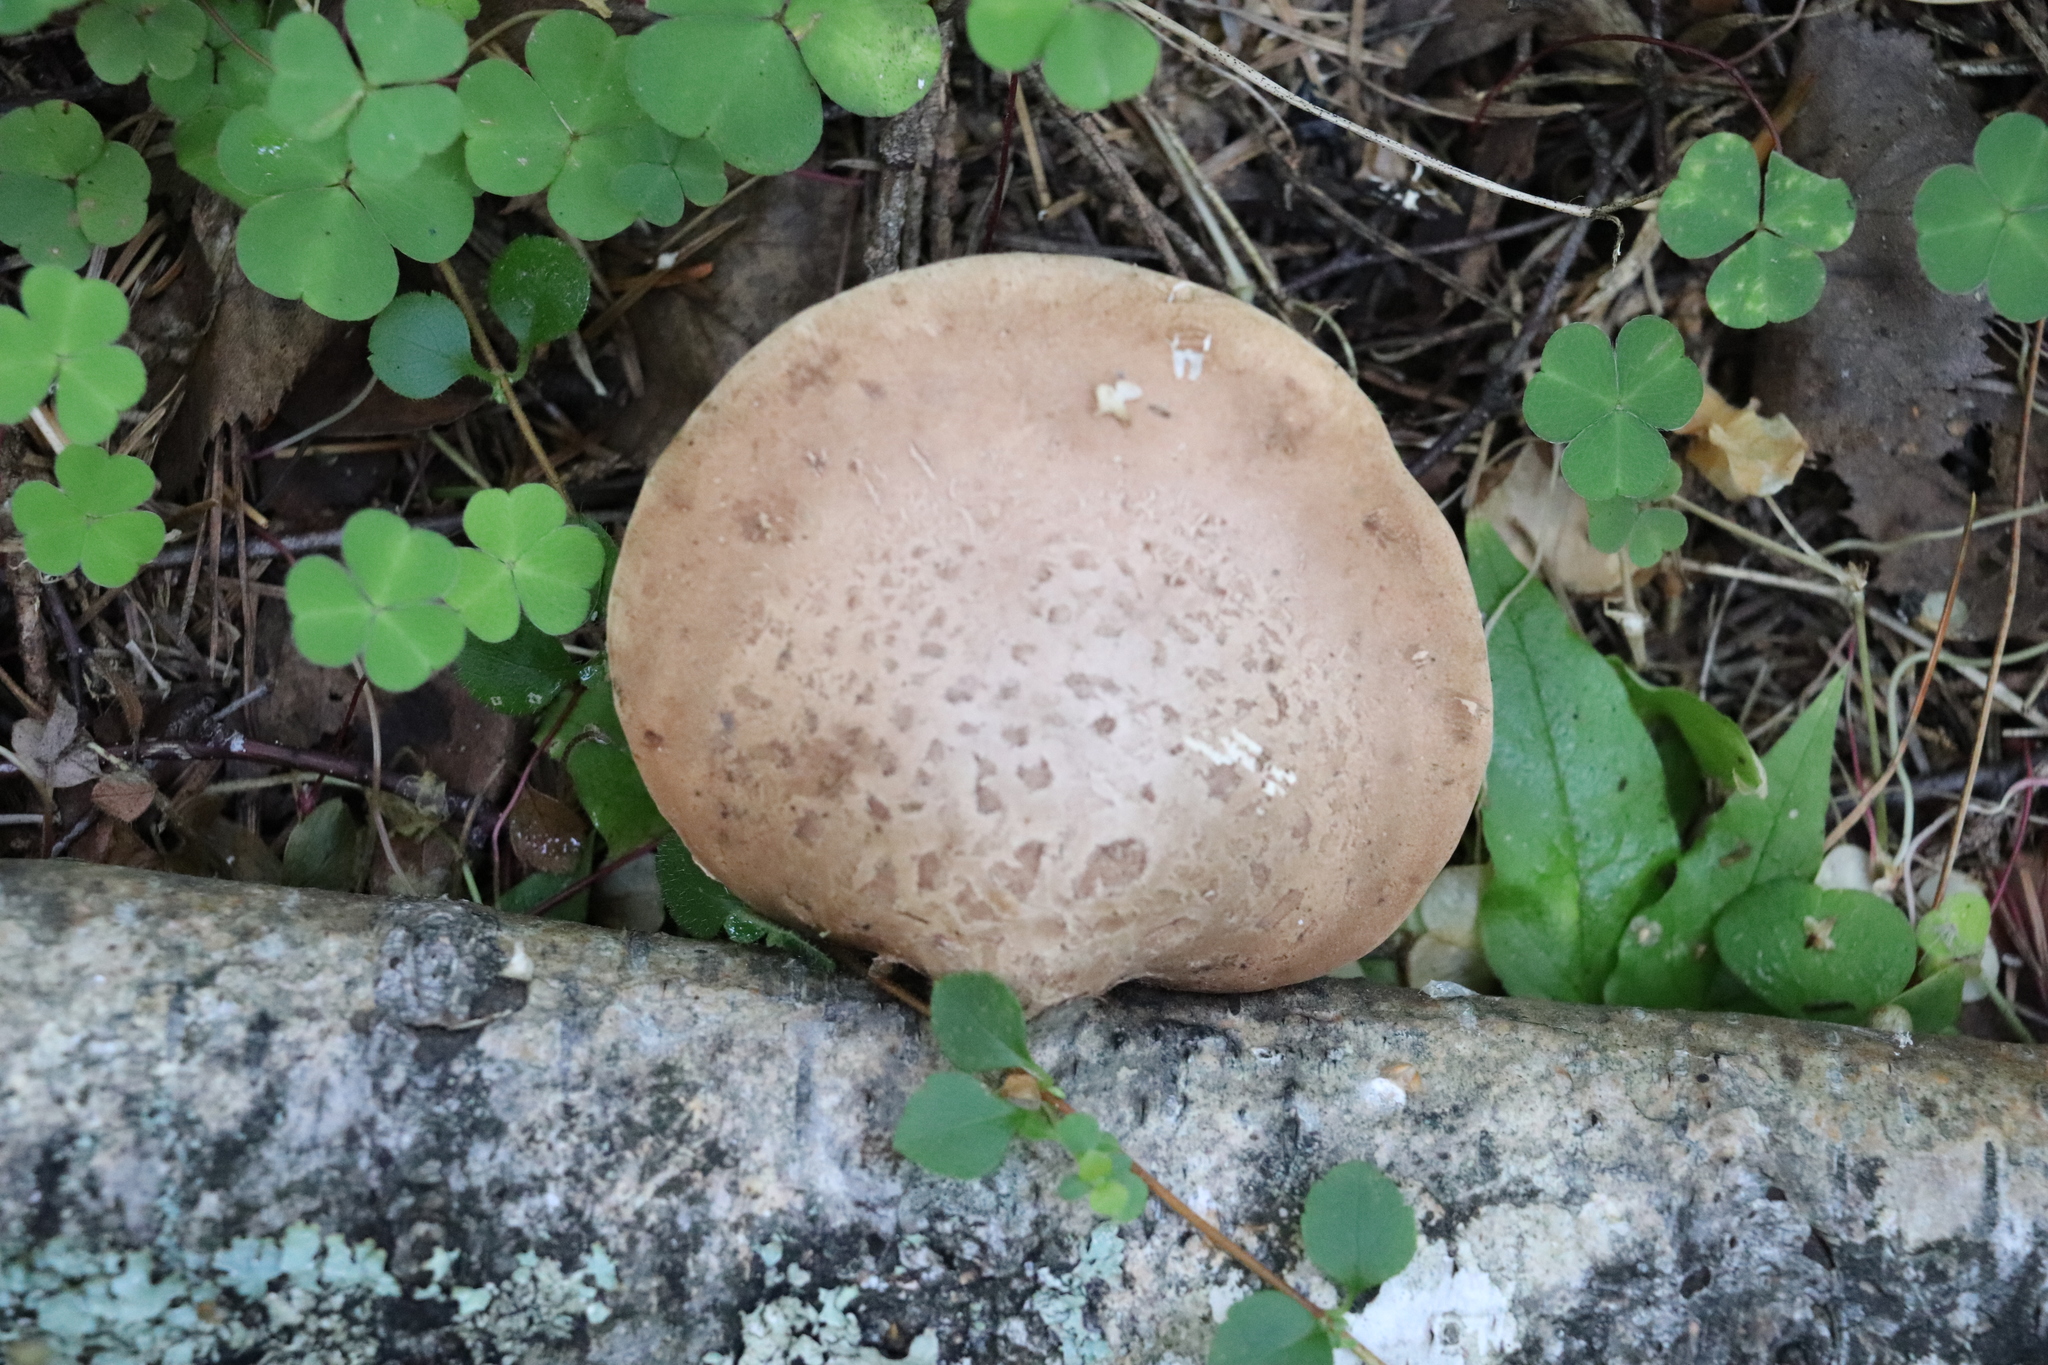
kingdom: Fungi
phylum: Basidiomycota
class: Agaricomycetes
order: Polyporales
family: Fomitopsidaceae
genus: Fomitopsis
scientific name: Fomitopsis betulina
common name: Birch polypore
